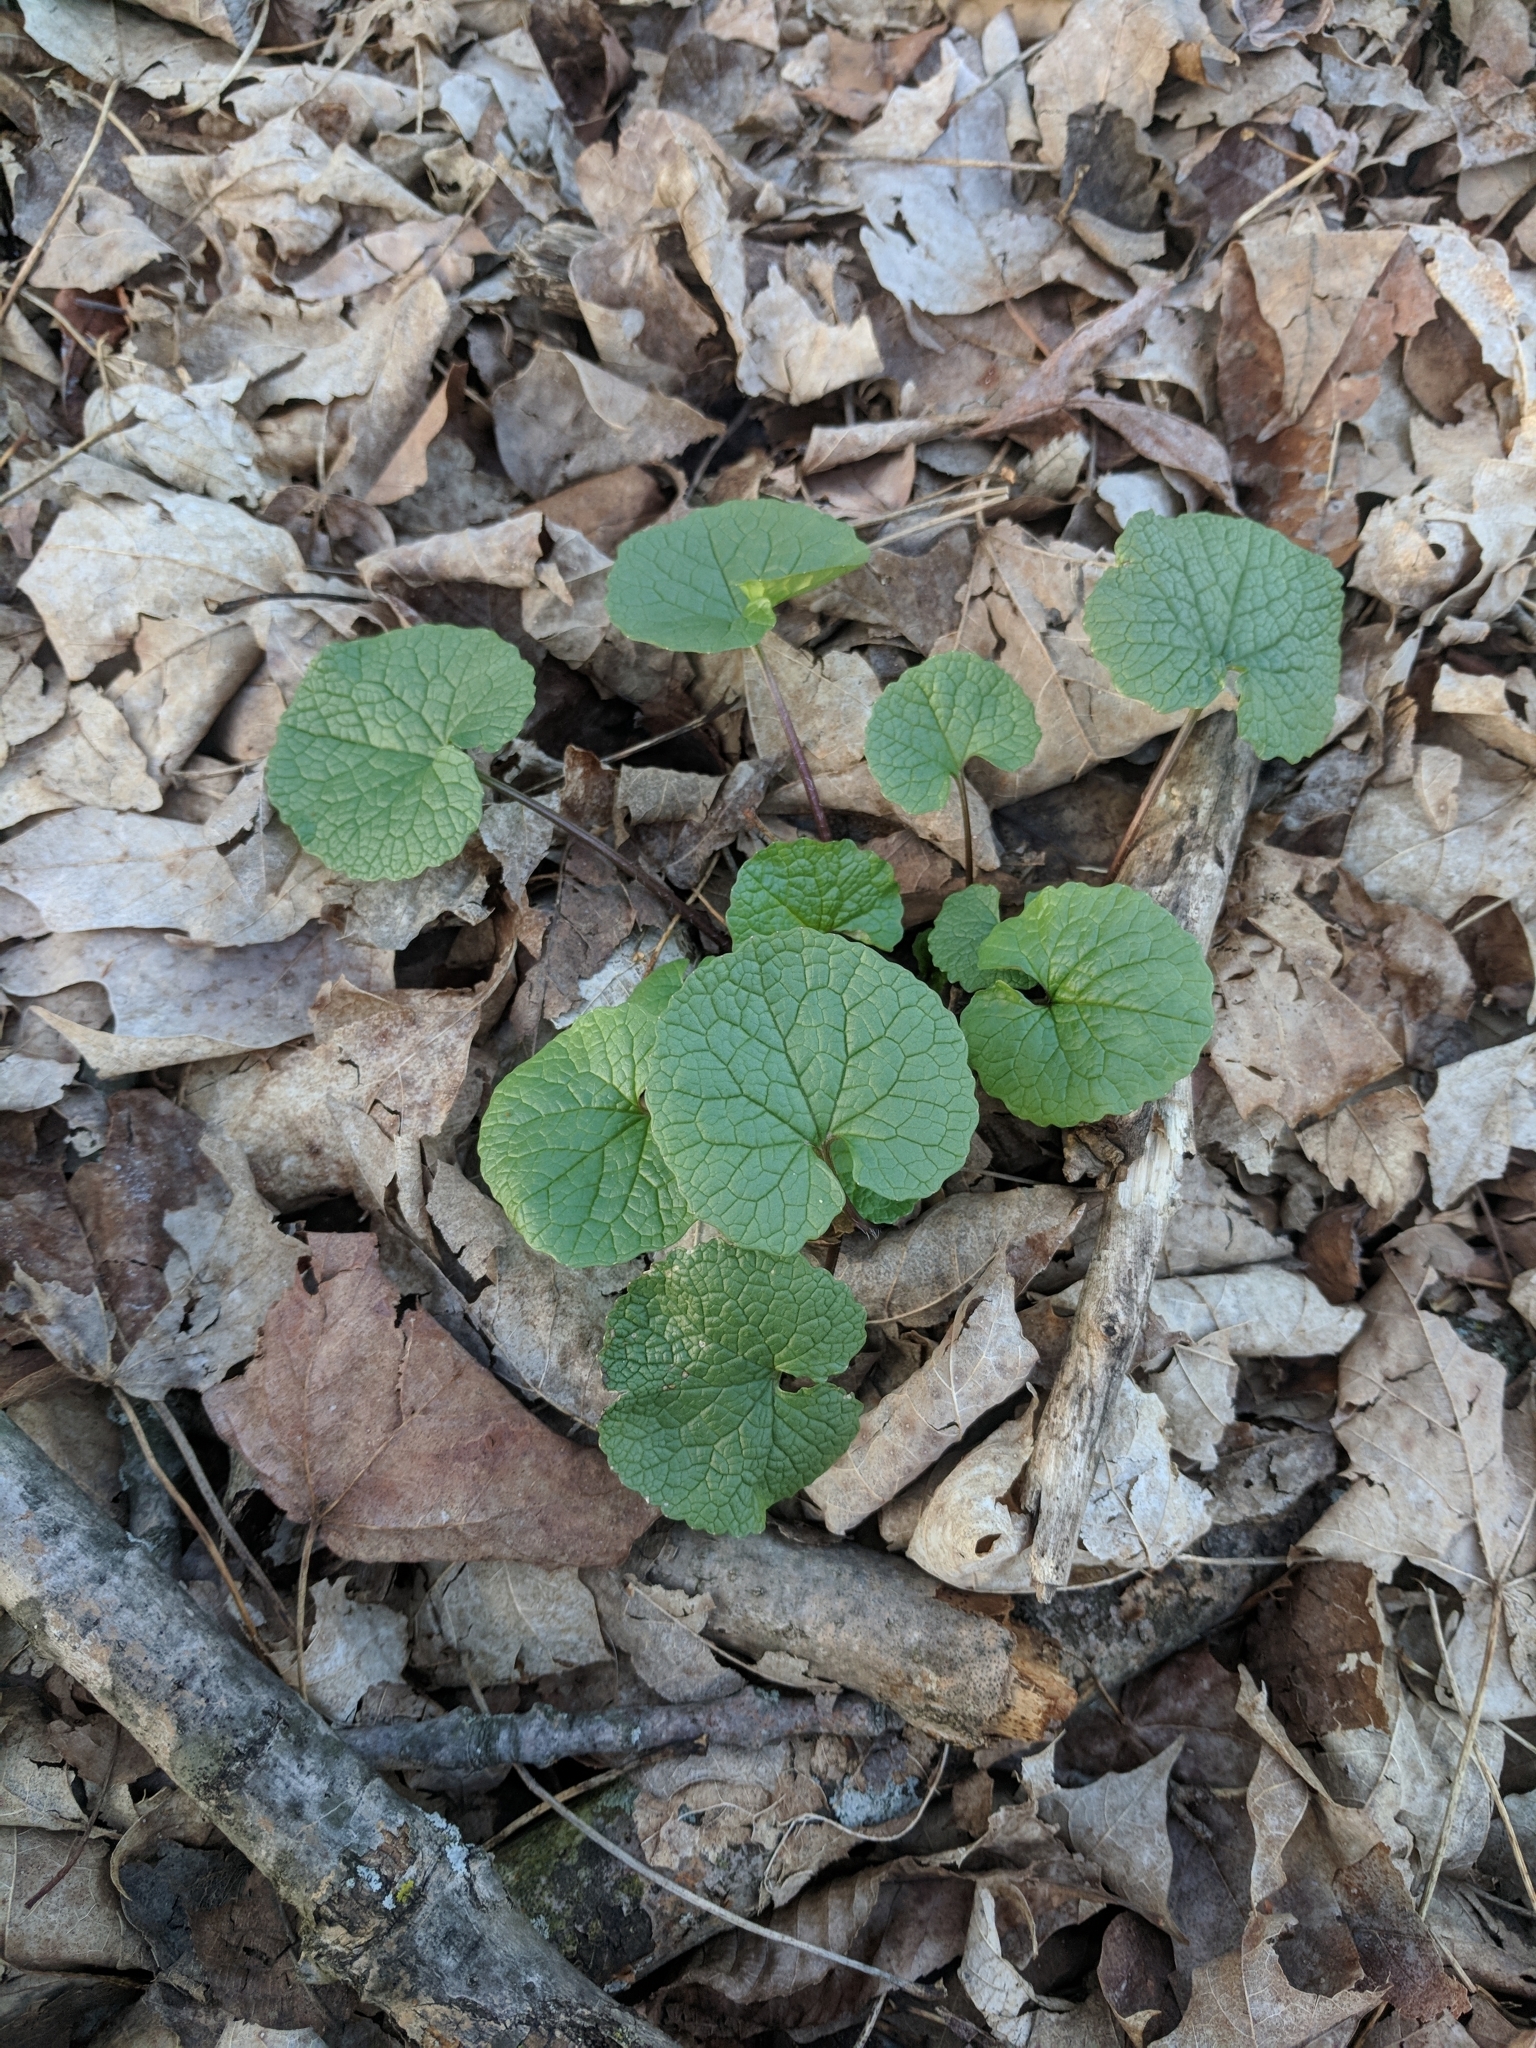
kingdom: Plantae
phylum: Tracheophyta
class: Magnoliopsida
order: Brassicales
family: Brassicaceae
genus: Alliaria
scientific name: Alliaria petiolata
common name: Garlic mustard
